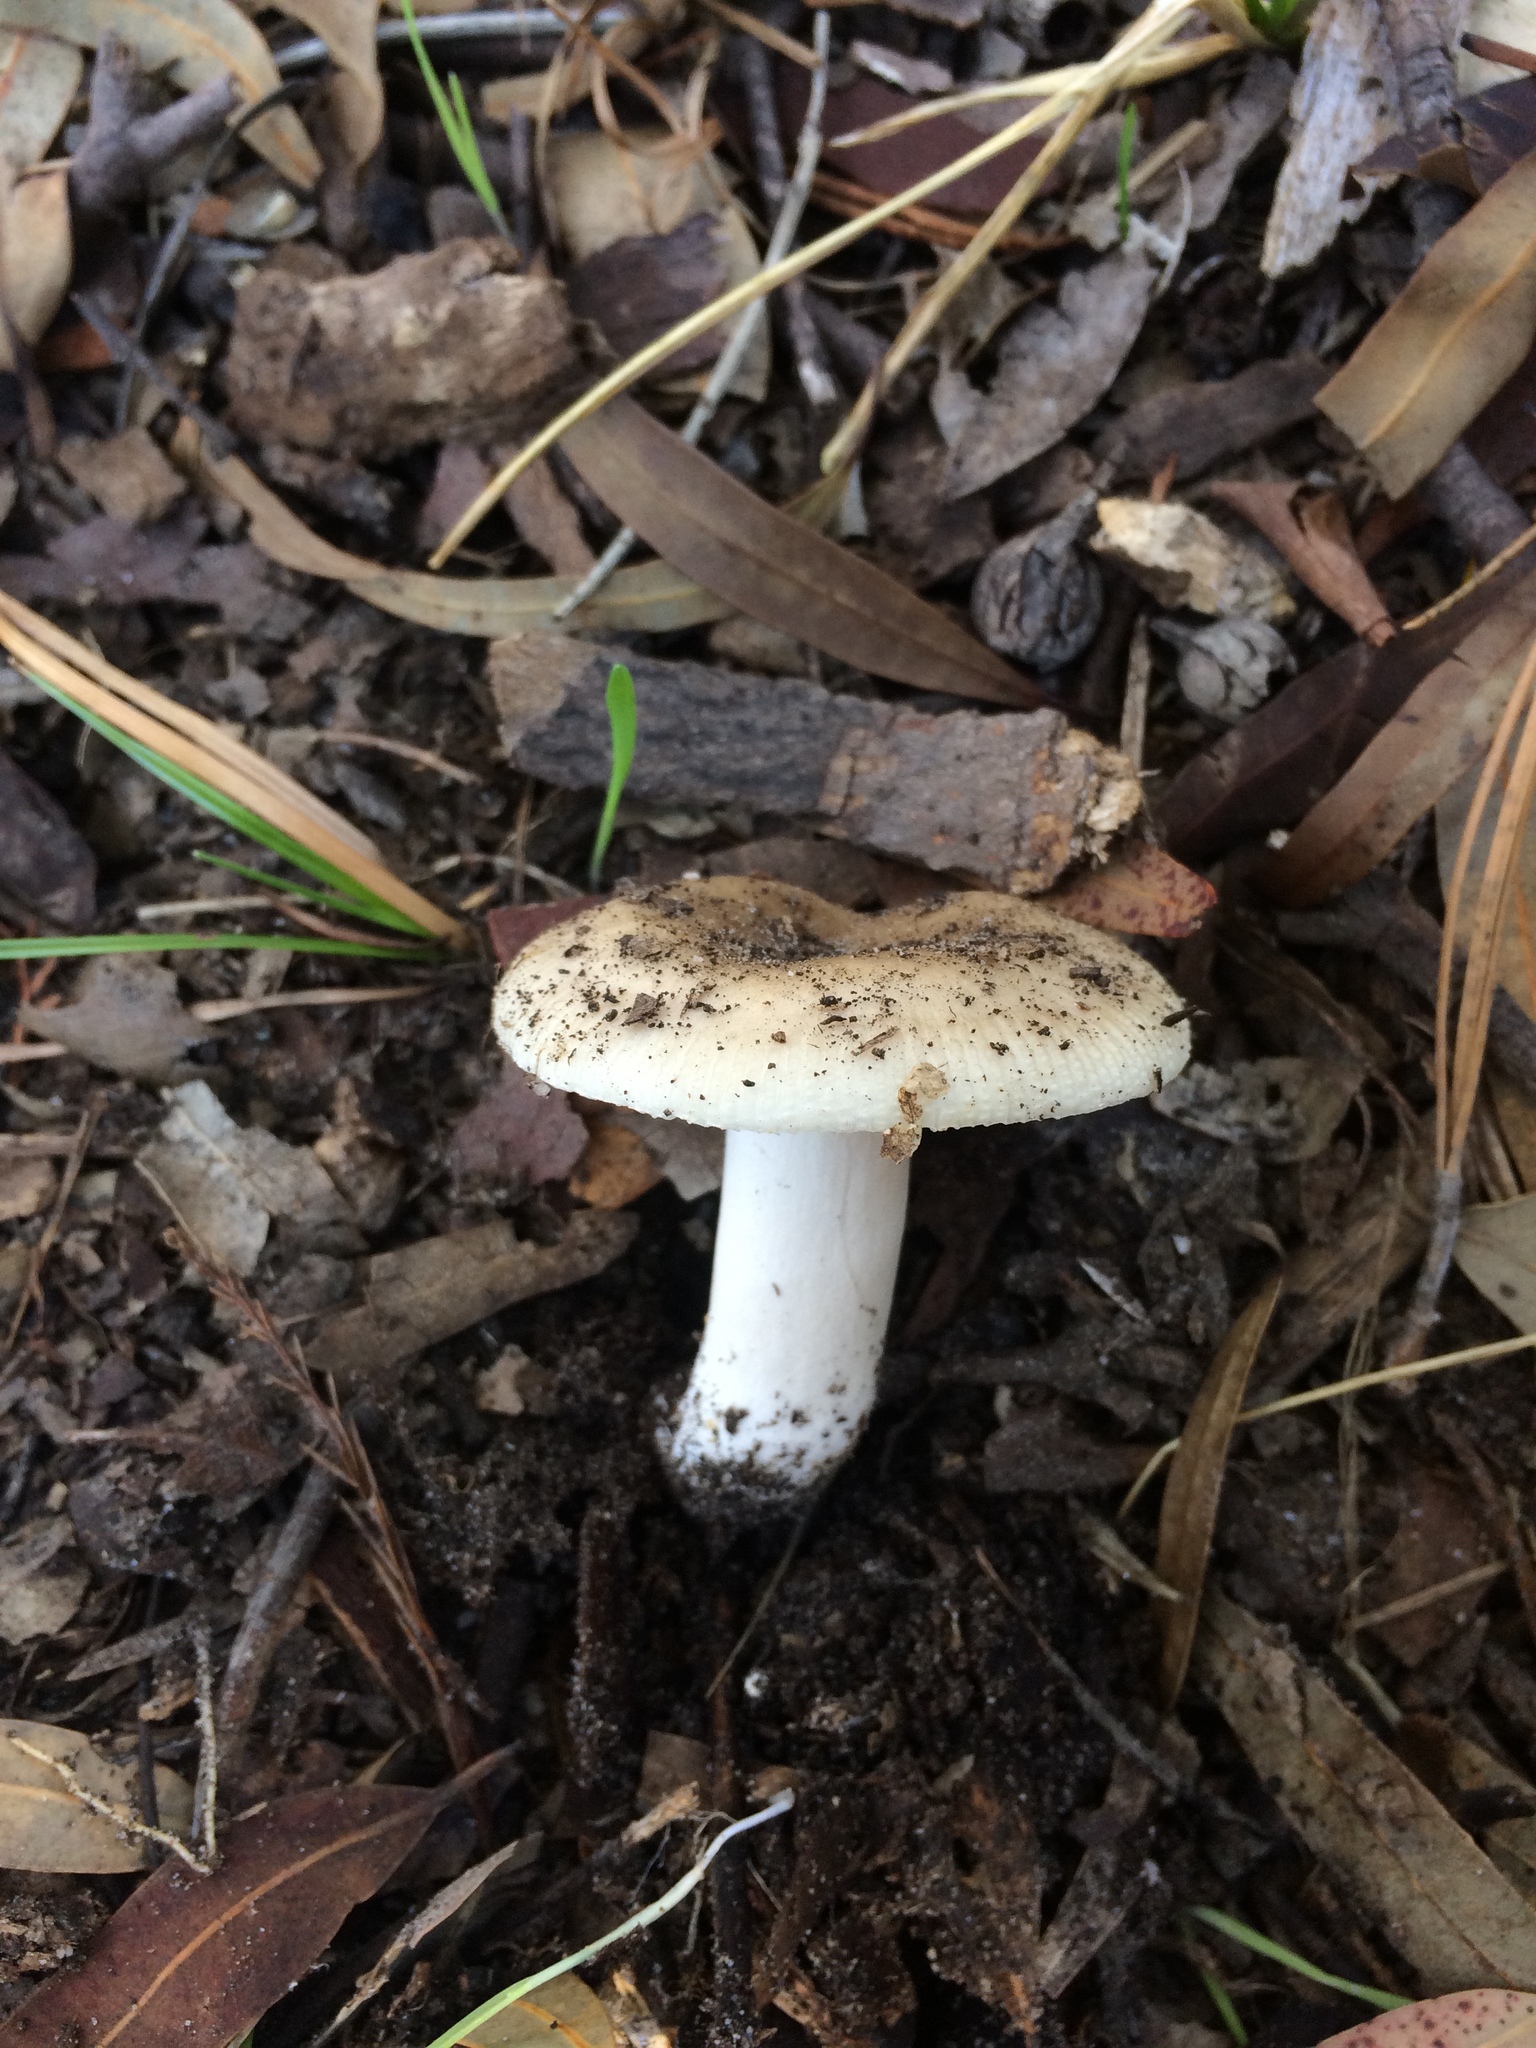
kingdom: Fungi
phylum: Basidiomycota
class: Agaricomycetes
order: Russulales
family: Russulaceae
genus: Russula
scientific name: Russula sororia
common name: Sepia brittlegill
